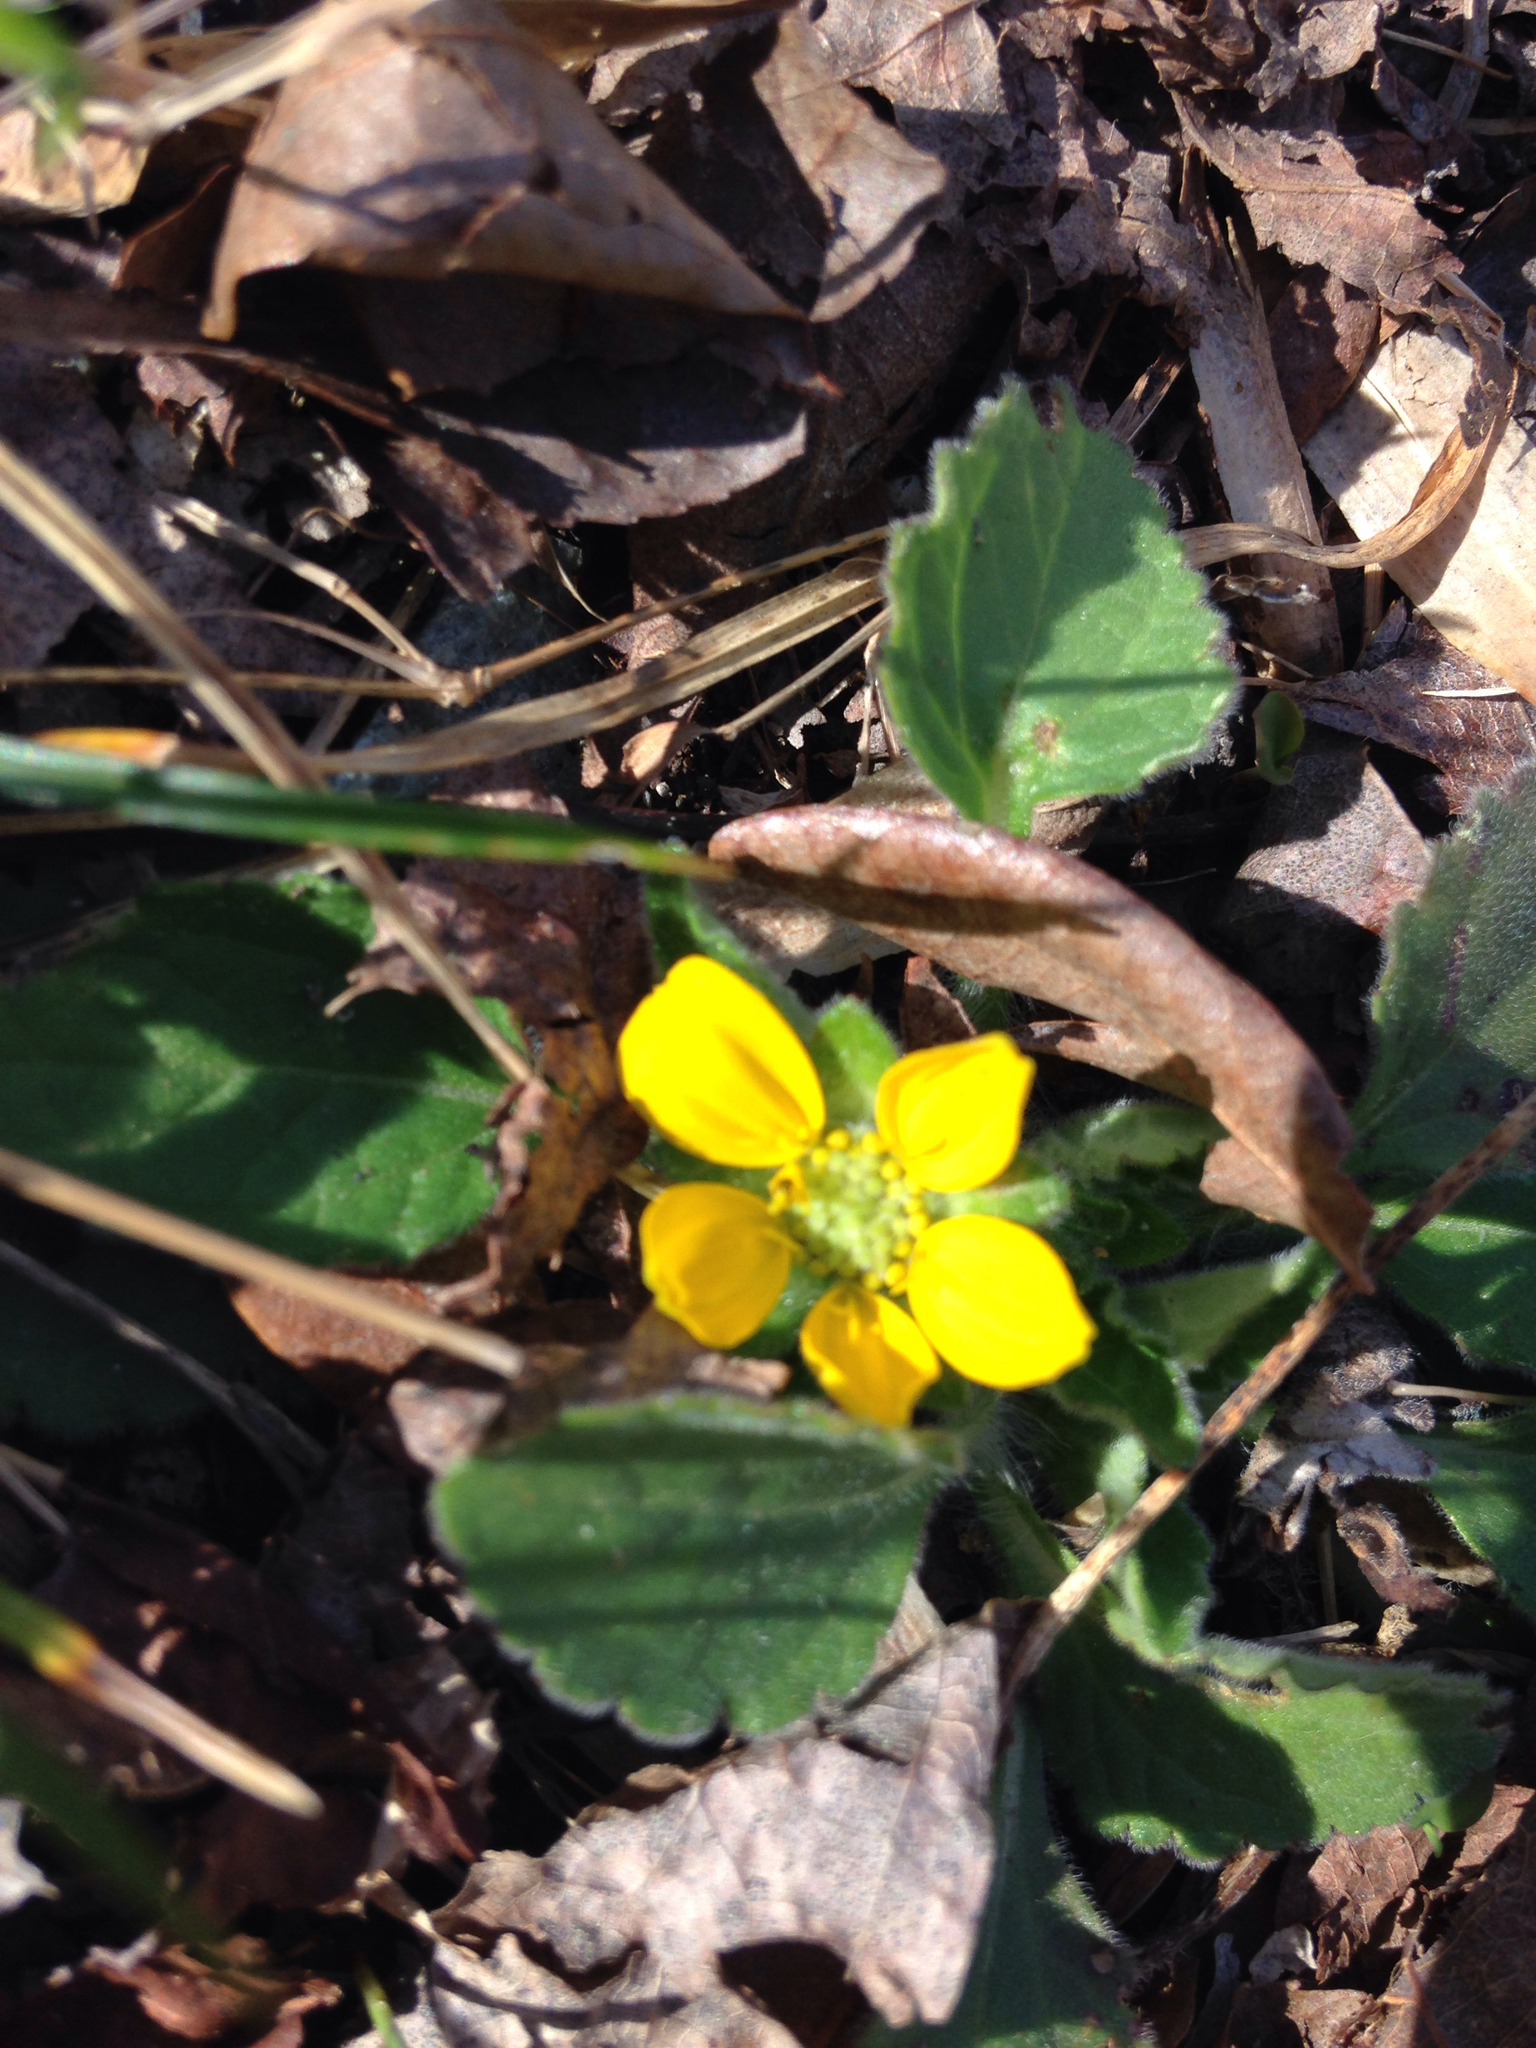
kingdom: Plantae
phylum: Tracheophyta
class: Magnoliopsida
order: Asterales
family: Asteraceae
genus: Chrysogonum
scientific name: Chrysogonum virginianum
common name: Golden-knee
